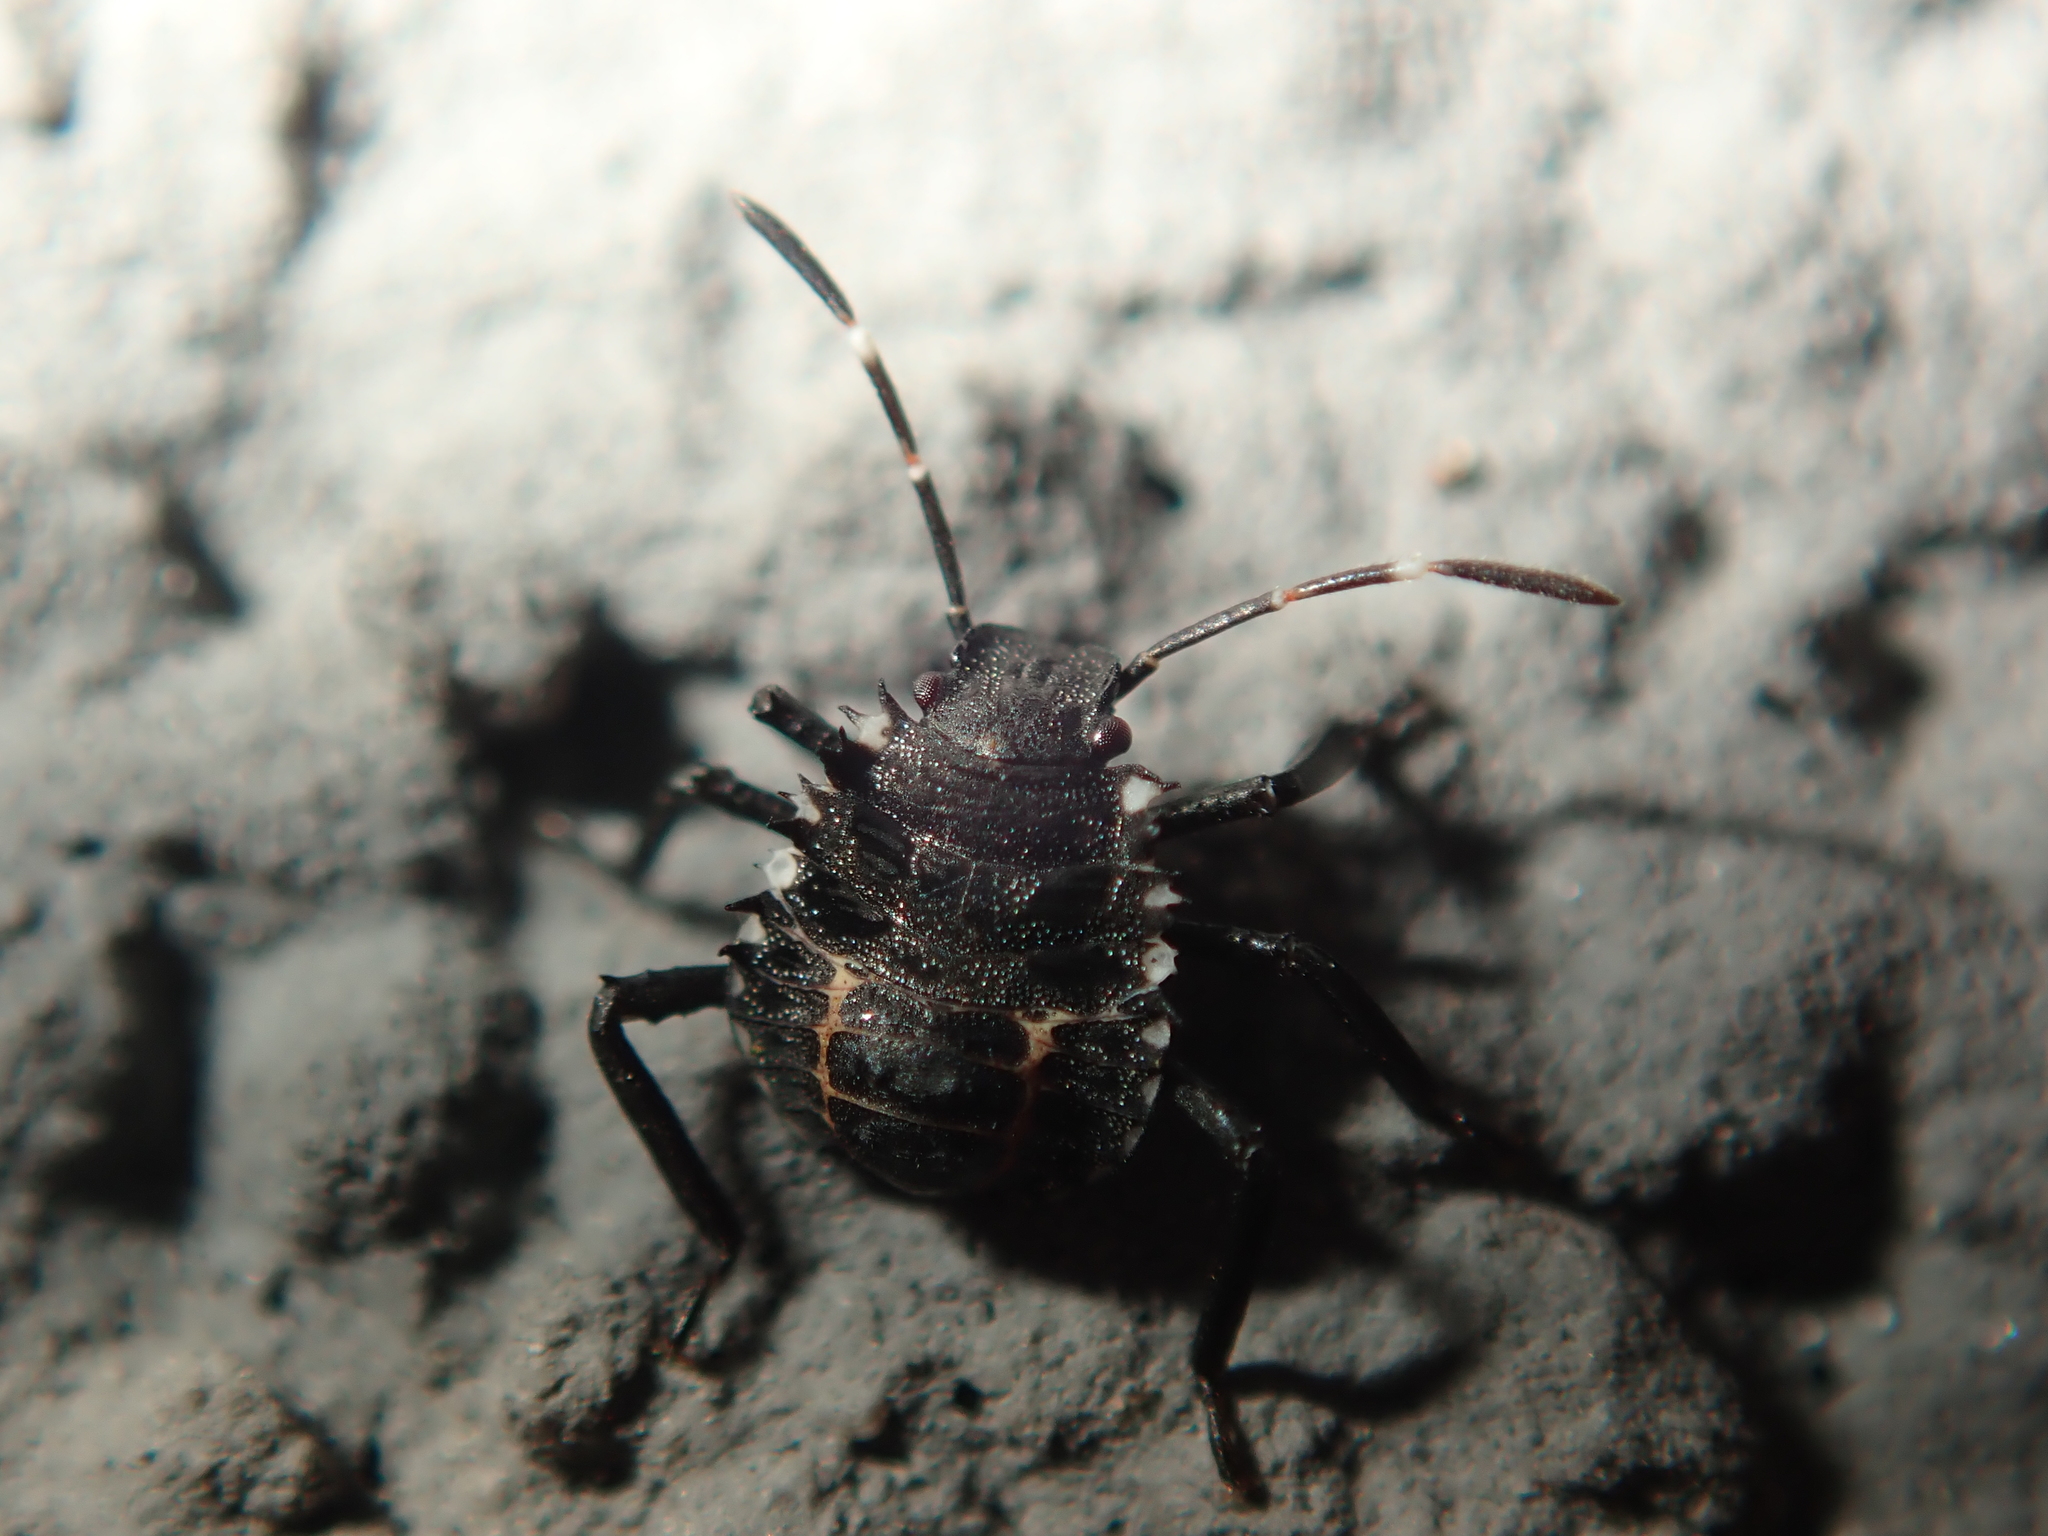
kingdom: Animalia
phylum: Arthropoda
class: Insecta
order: Hemiptera
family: Pentatomidae
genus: Halyomorpha
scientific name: Halyomorpha halys
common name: Brown marmorated stink bug
